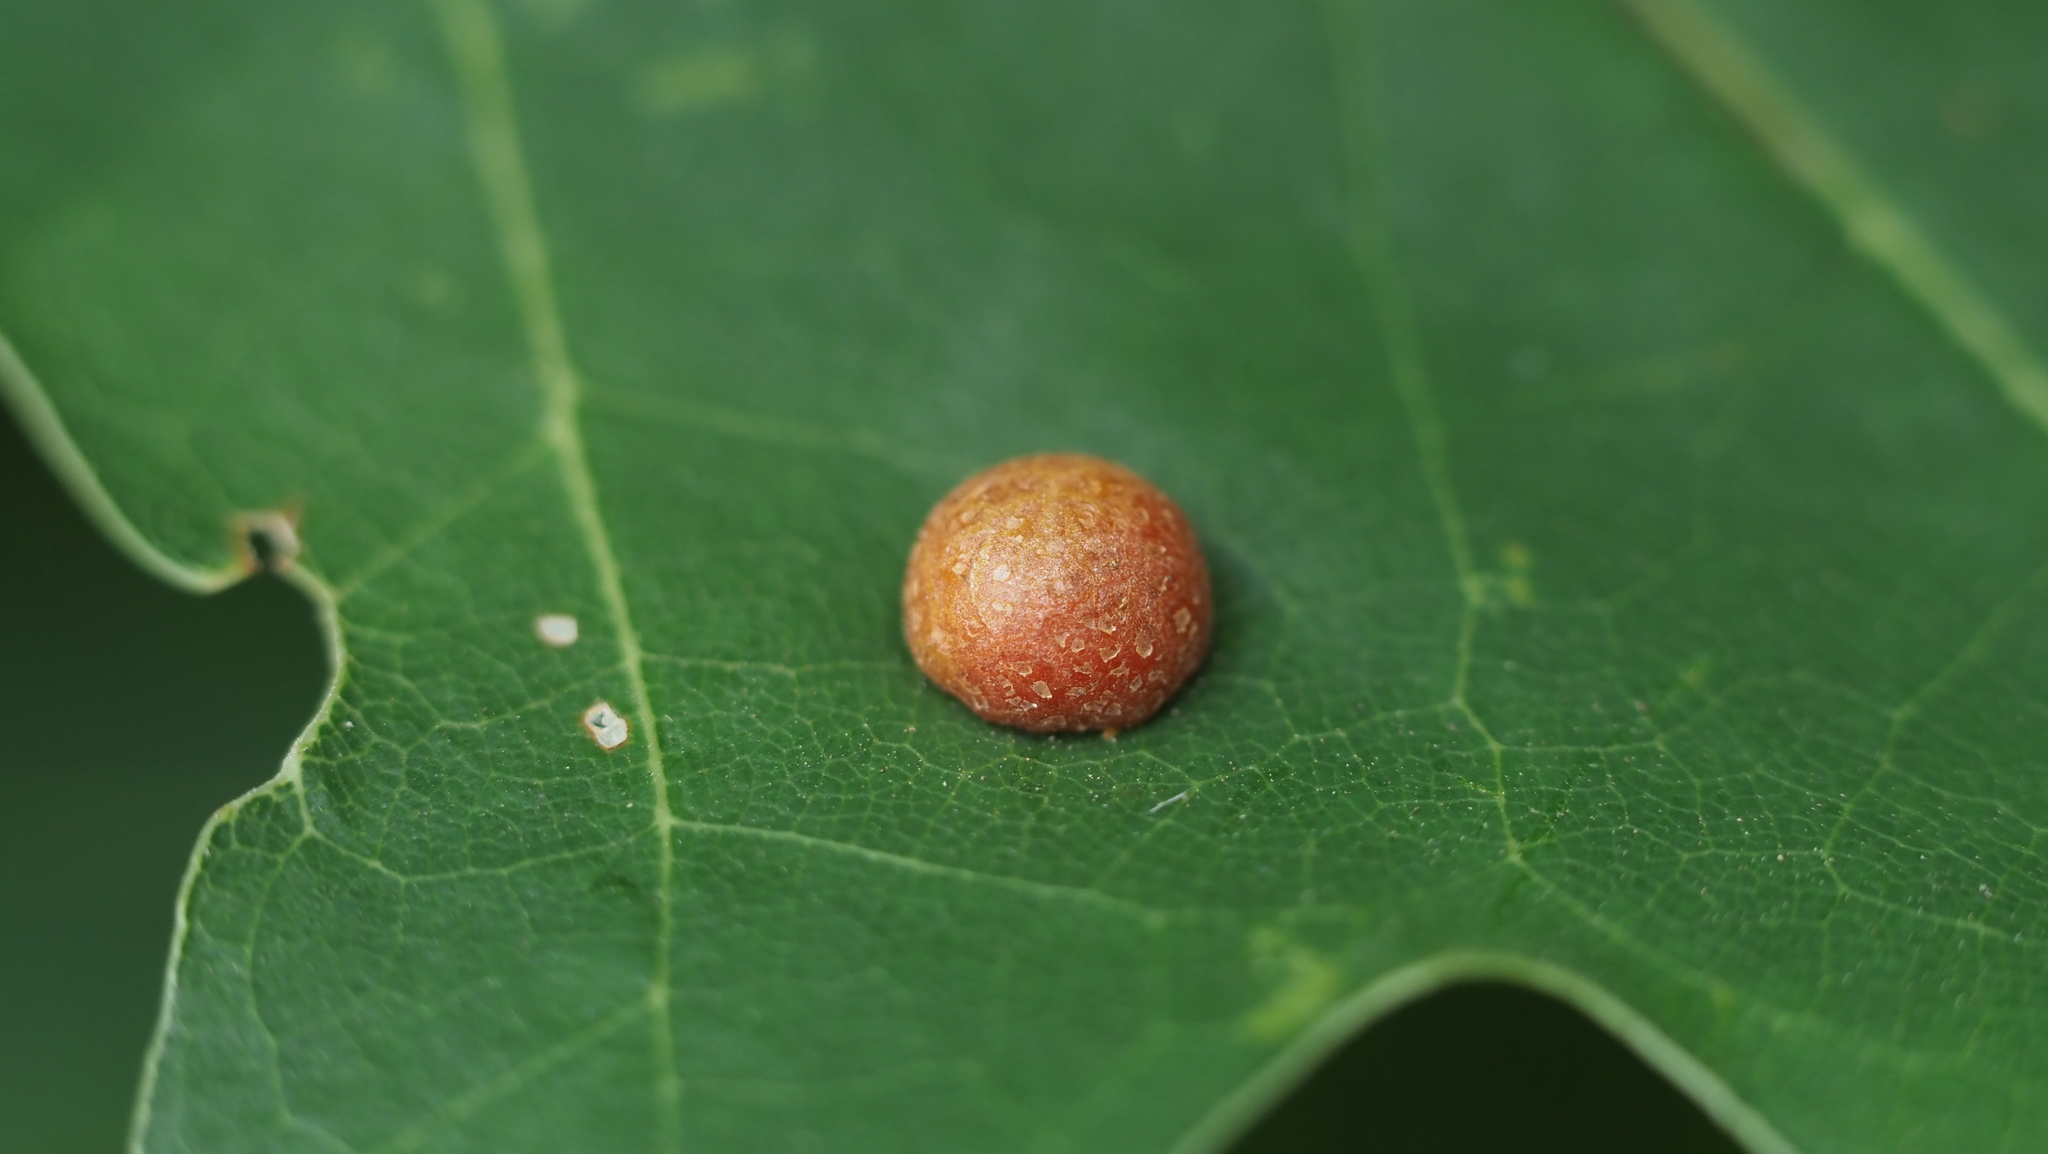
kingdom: Animalia
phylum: Arthropoda
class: Insecta
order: Diptera
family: Cecidomyiidae
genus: Polystepha
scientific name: Polystepha pilulae
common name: Oak leaf gall midge
